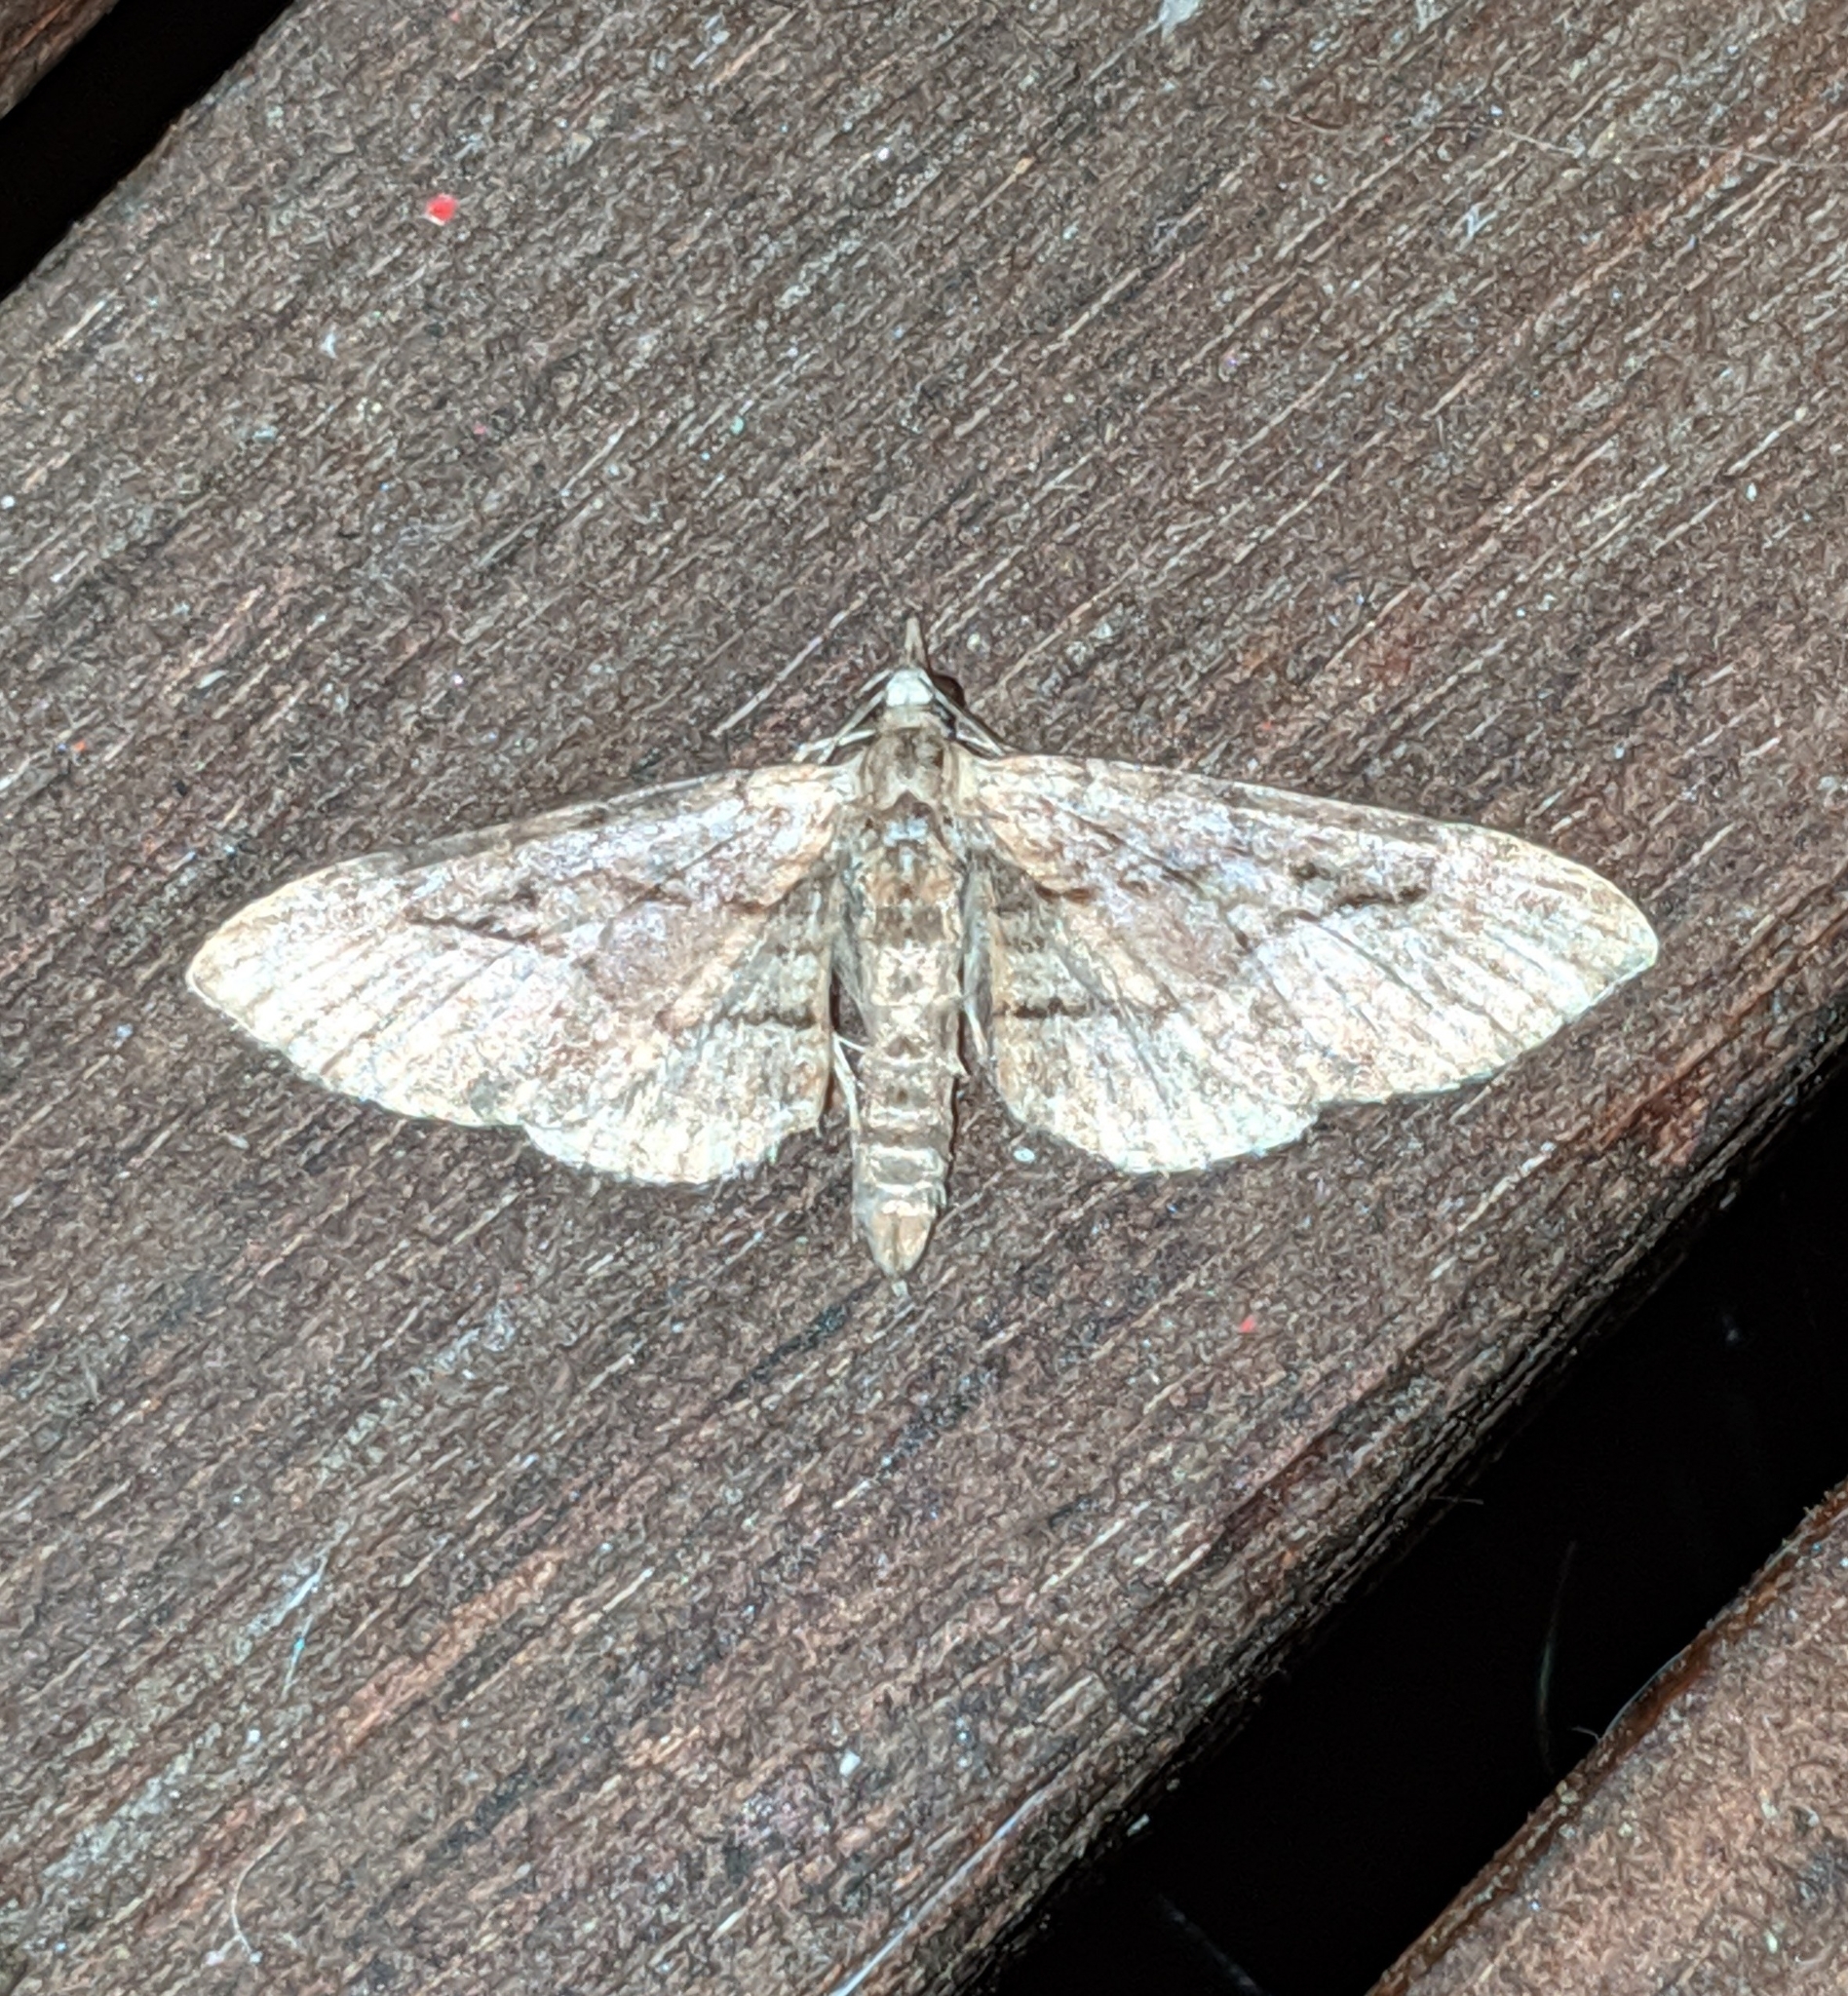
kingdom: Animalia
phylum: Arthropoda
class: Insecta
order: Lepidoptera
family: Geometridae
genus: Eupithecia
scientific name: Eupithecia unicolor
